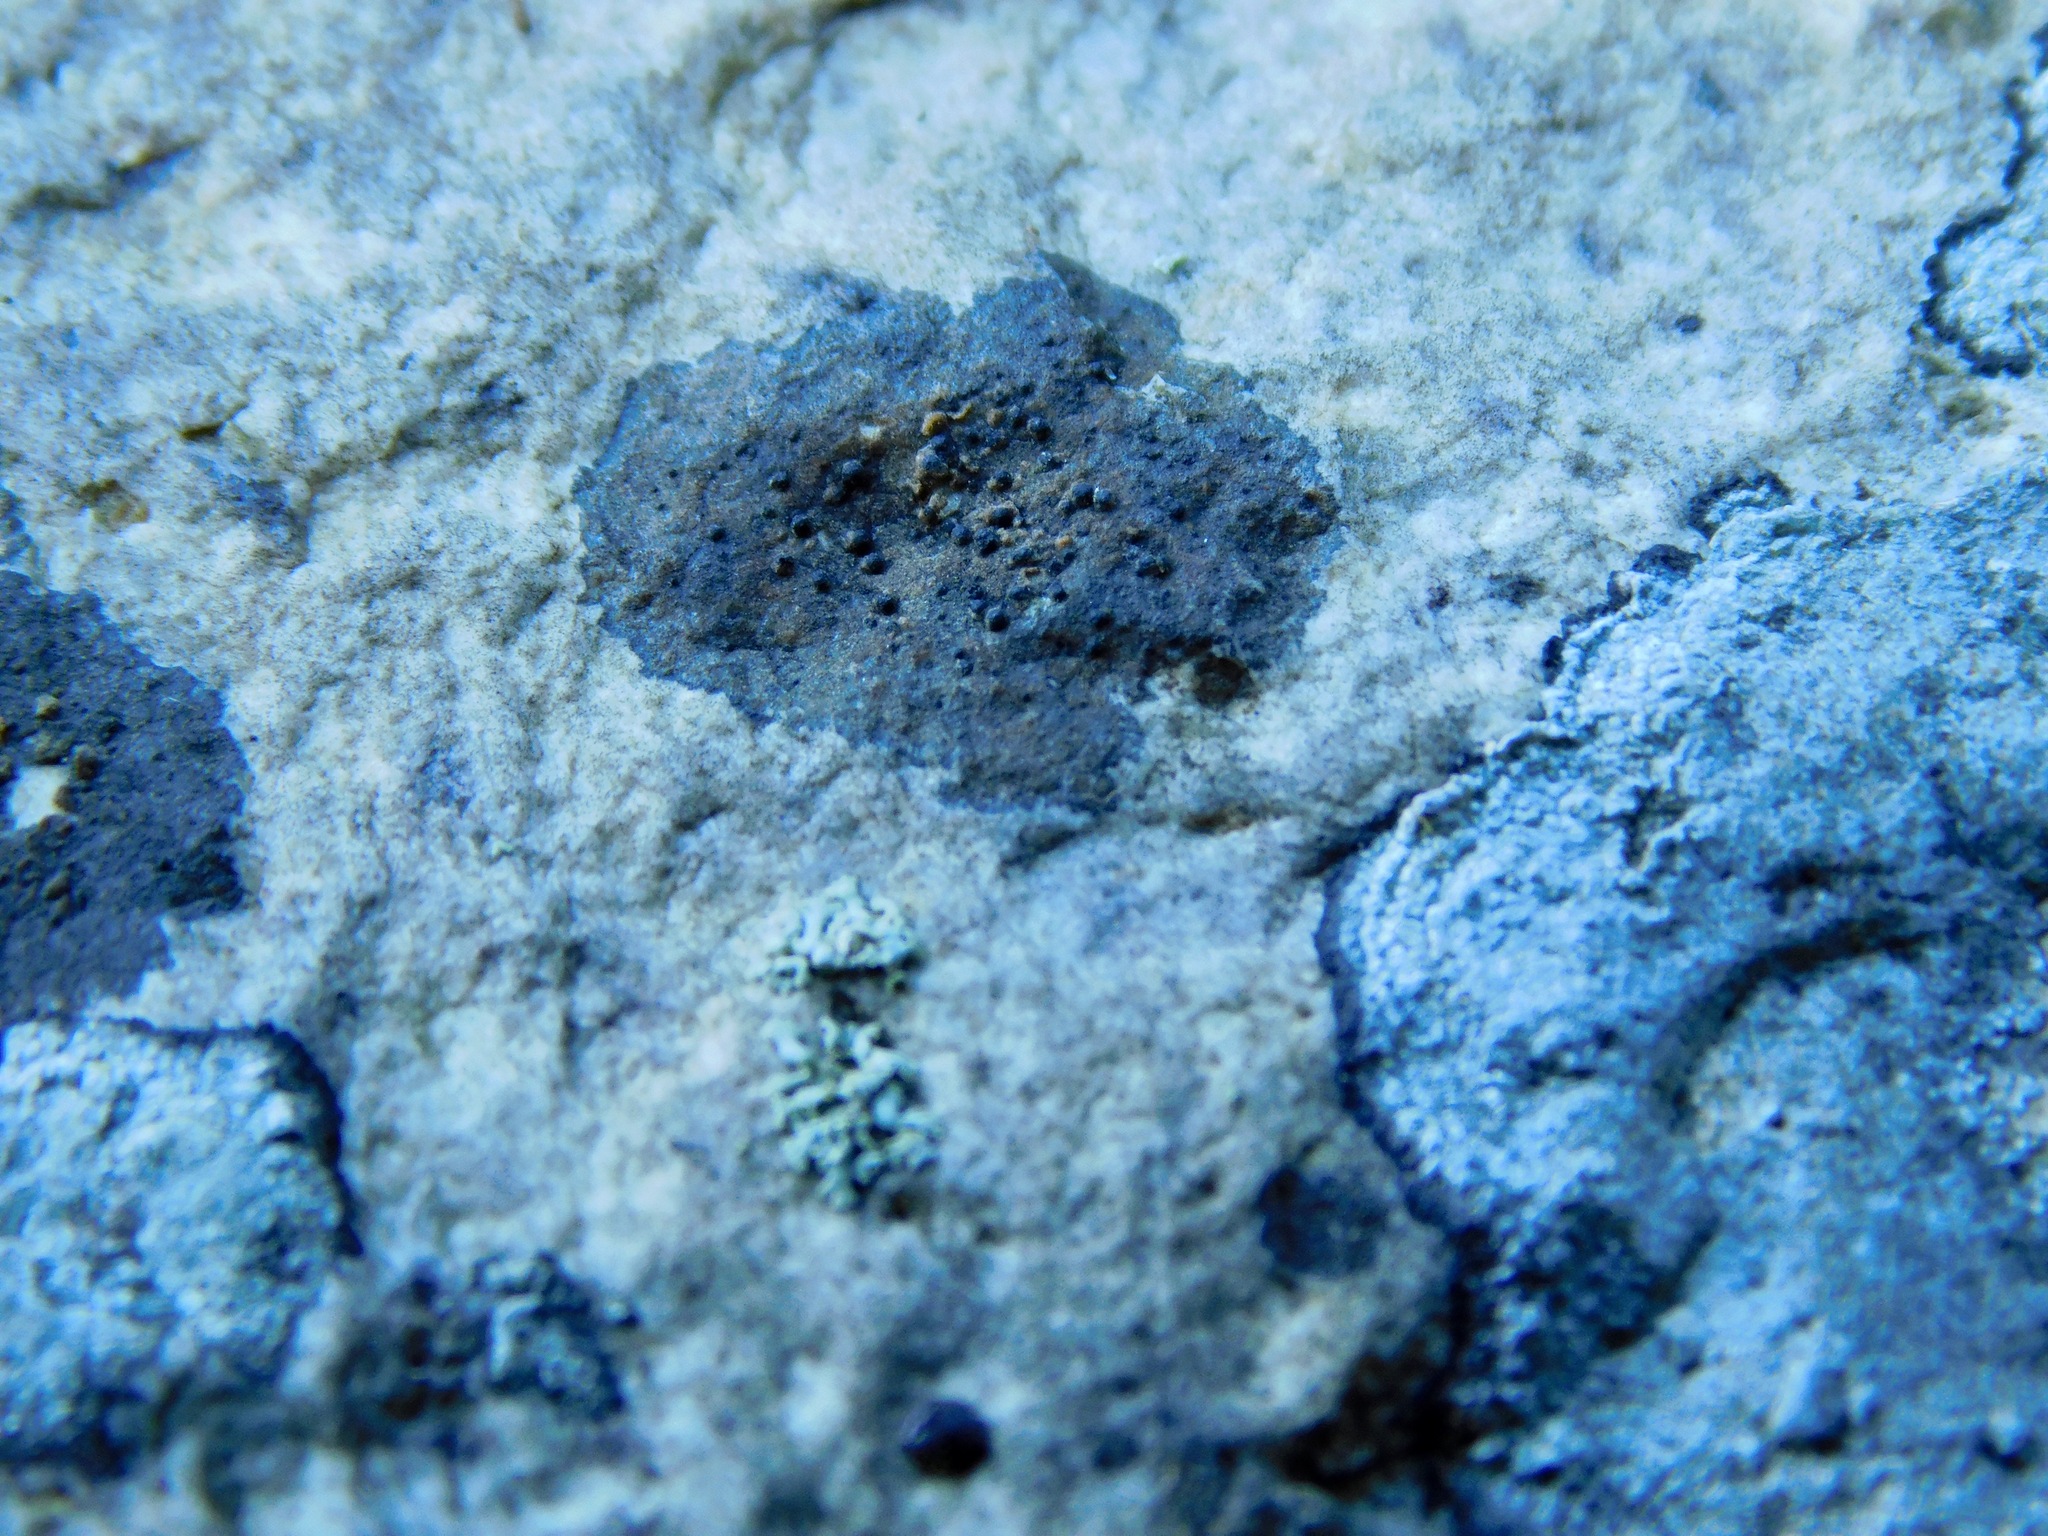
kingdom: Fungi
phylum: Ascomycota
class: Lecanoromycetes
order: Ostropales
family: Porinaceae
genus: Pseudosagedia
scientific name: Pseudosagedia guentheri
